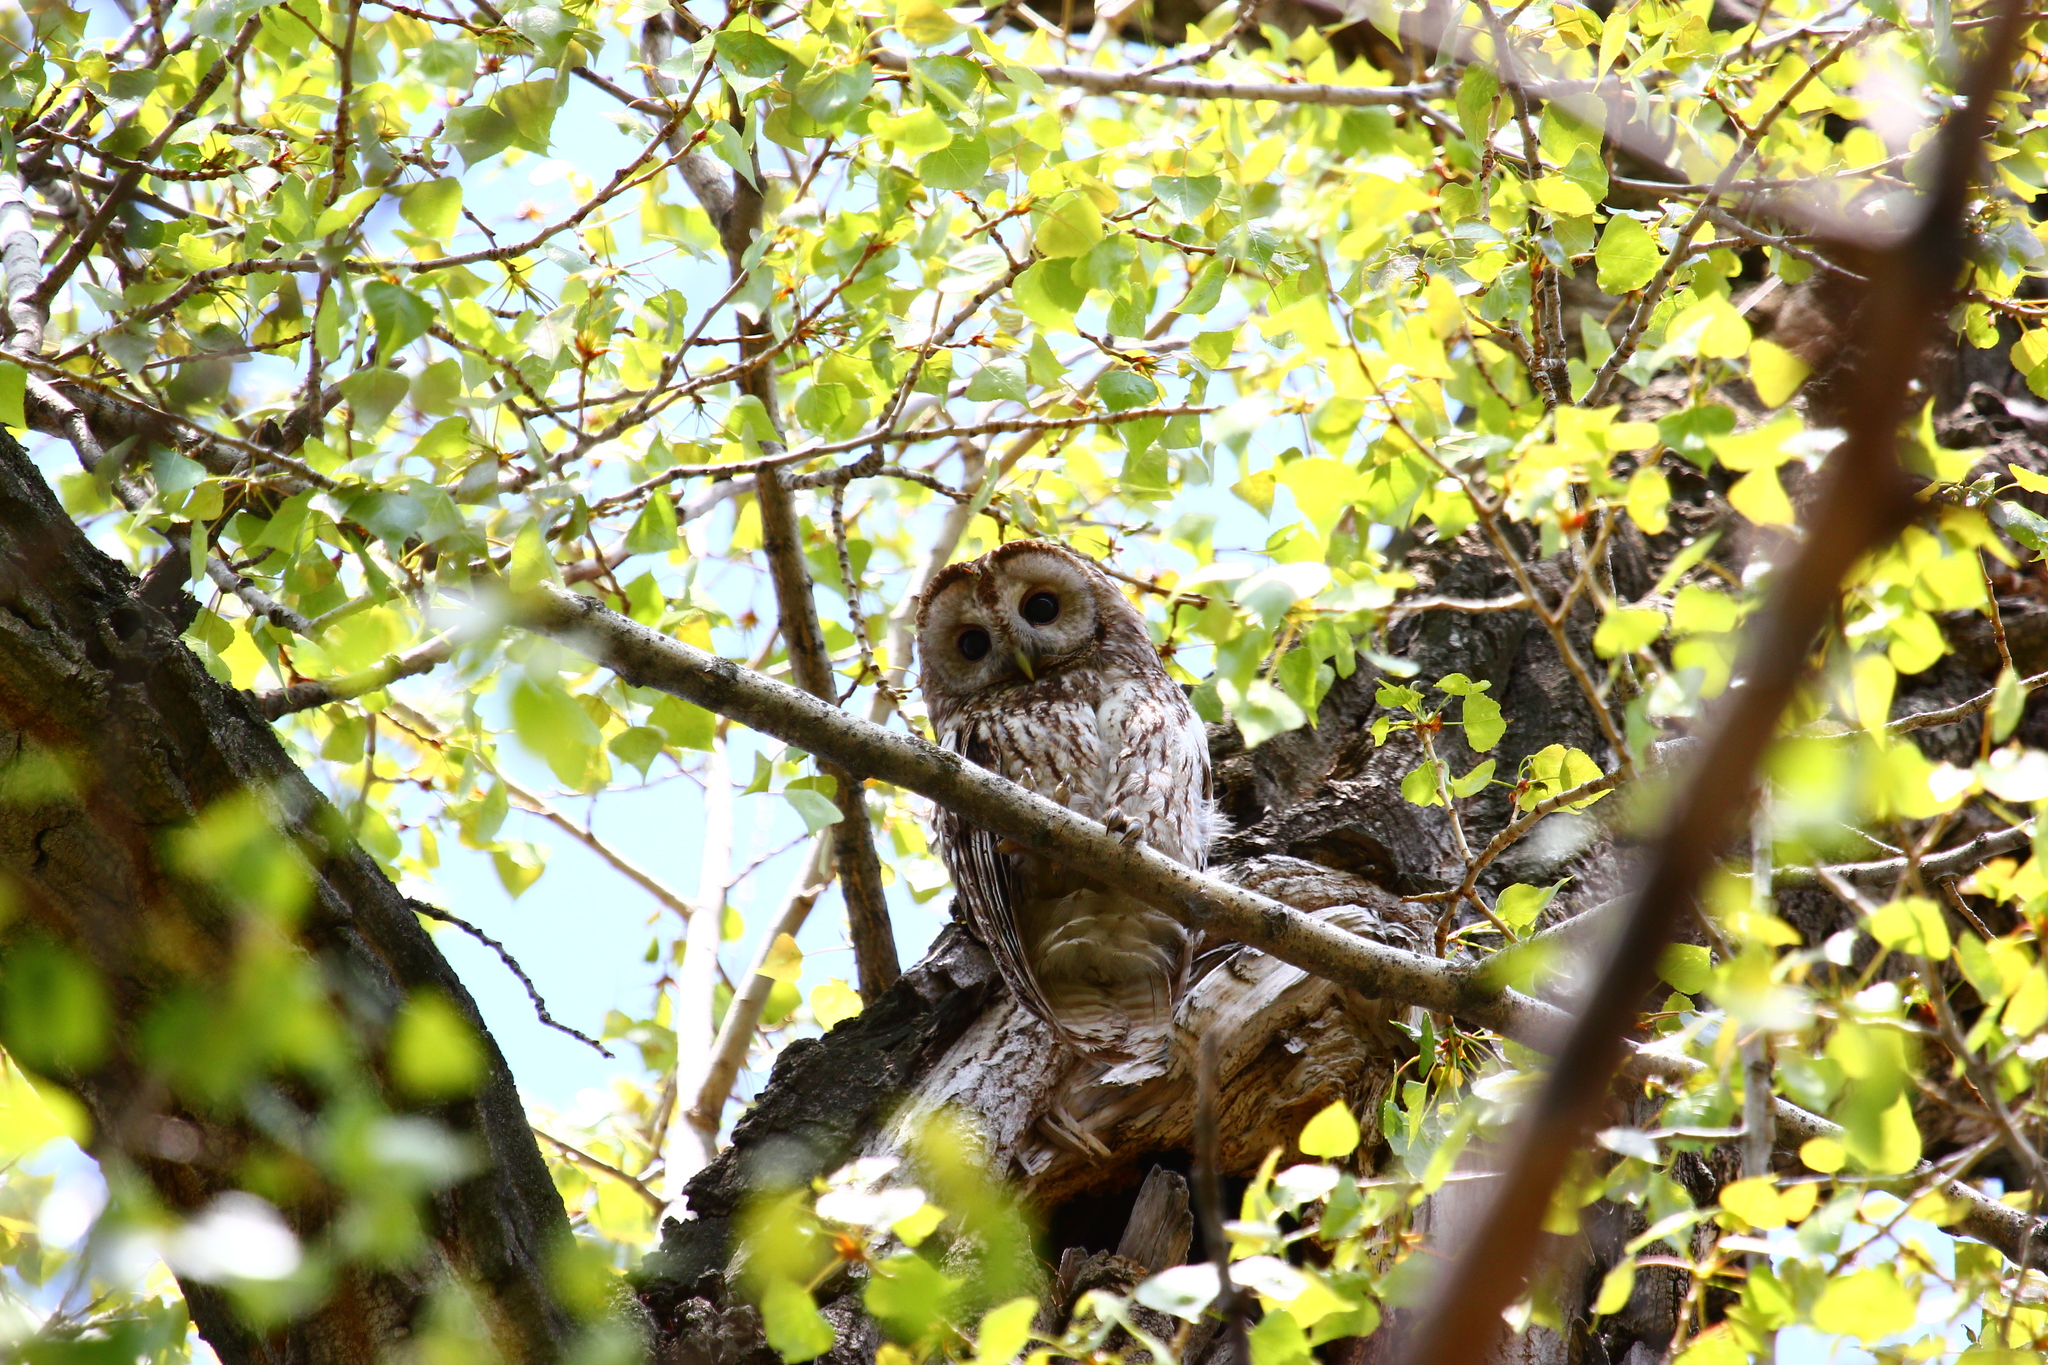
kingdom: Animalia
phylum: Chordata
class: Aves
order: Strigiformes
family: Strigidae
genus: Strix
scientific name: Strix aluco
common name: Tawny owl
